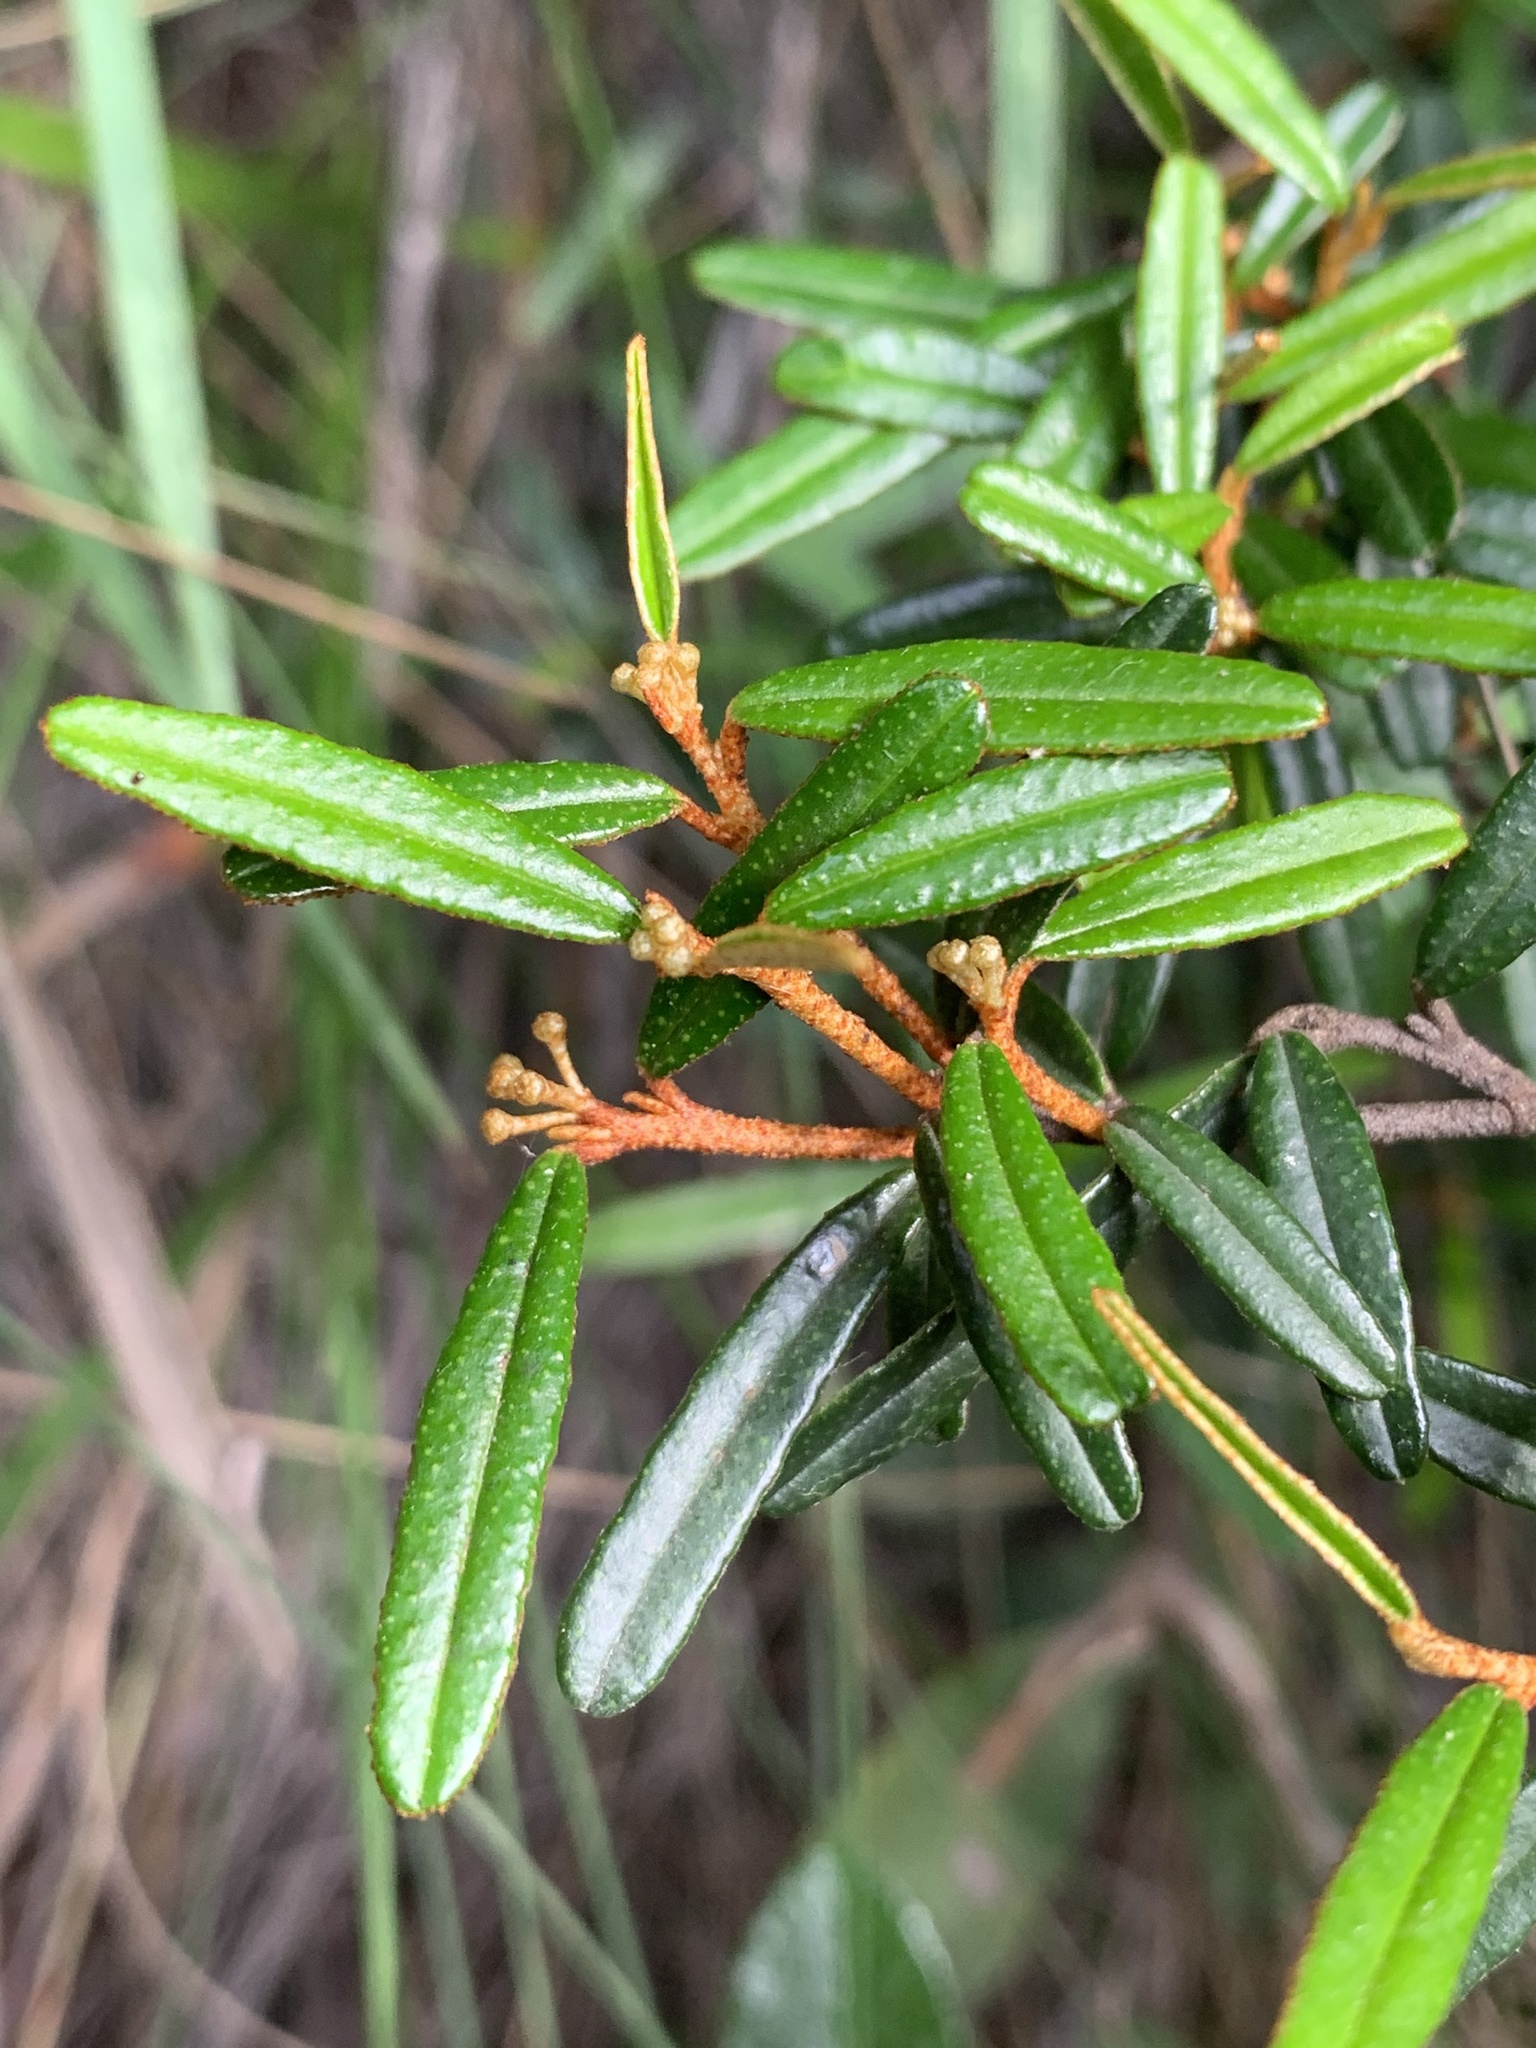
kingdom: Plantae
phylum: Tracheophyta
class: Magnoliopsida
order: Sapindales
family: Rutaceae
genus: Phebalium
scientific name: Phebalium squamulosum
